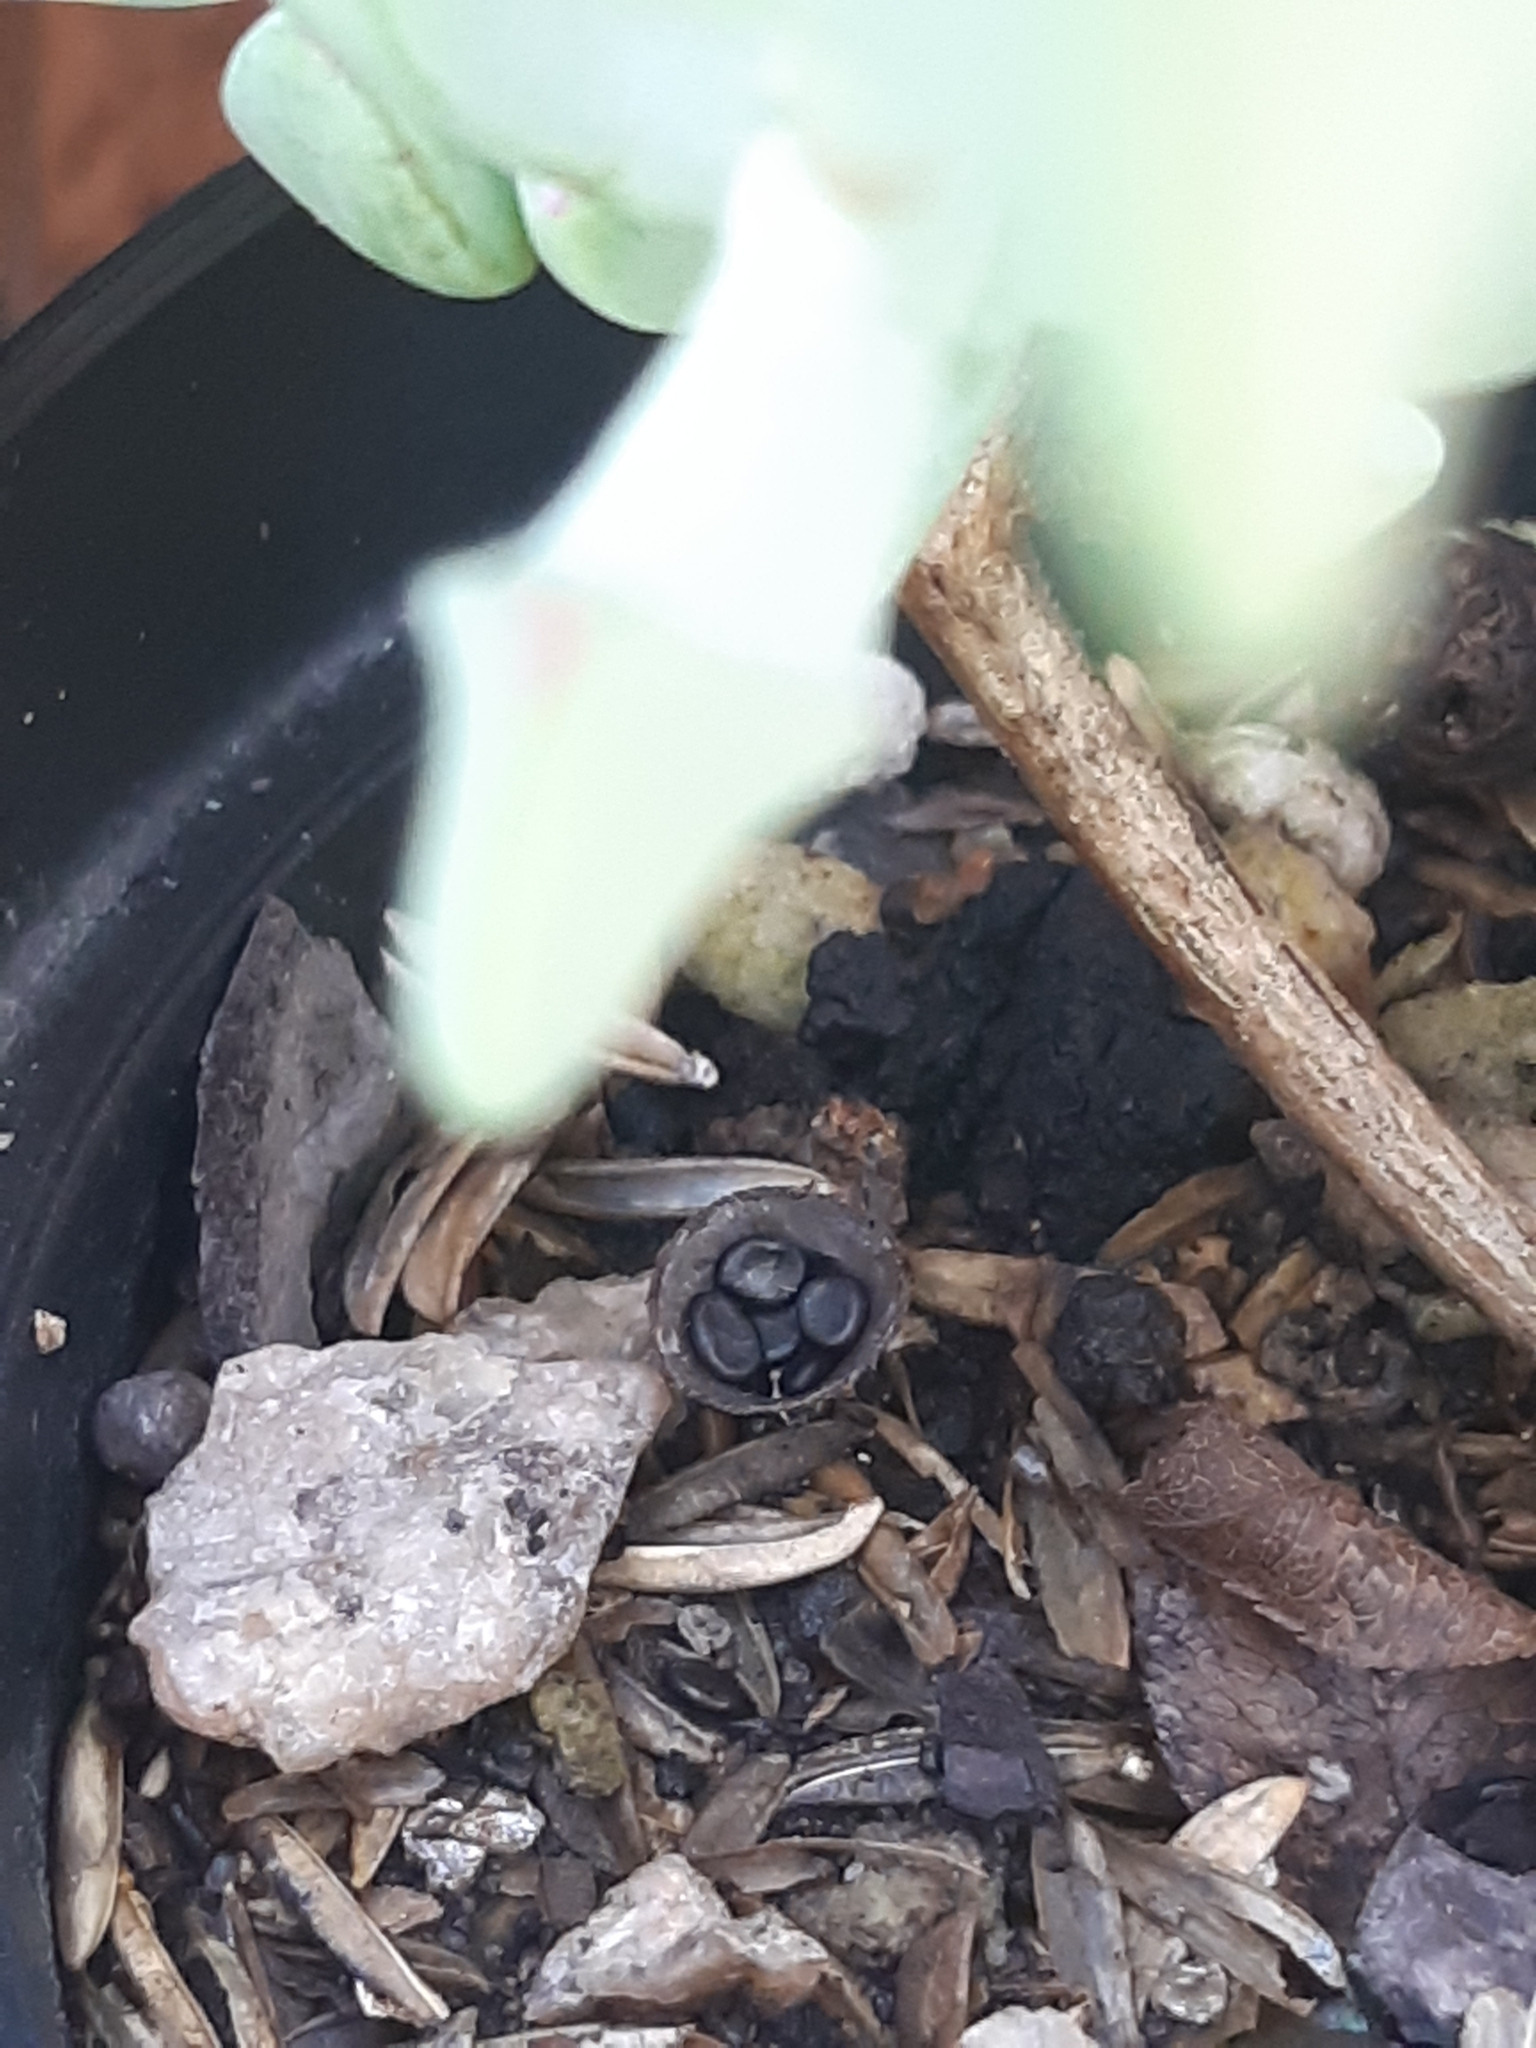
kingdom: Fungi
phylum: Basidiomycota
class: Agaricomycetes
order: Agaricales
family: Agaricaceae
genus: Cyathus
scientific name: Cyathus stercoreus
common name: Dung bird's nest
